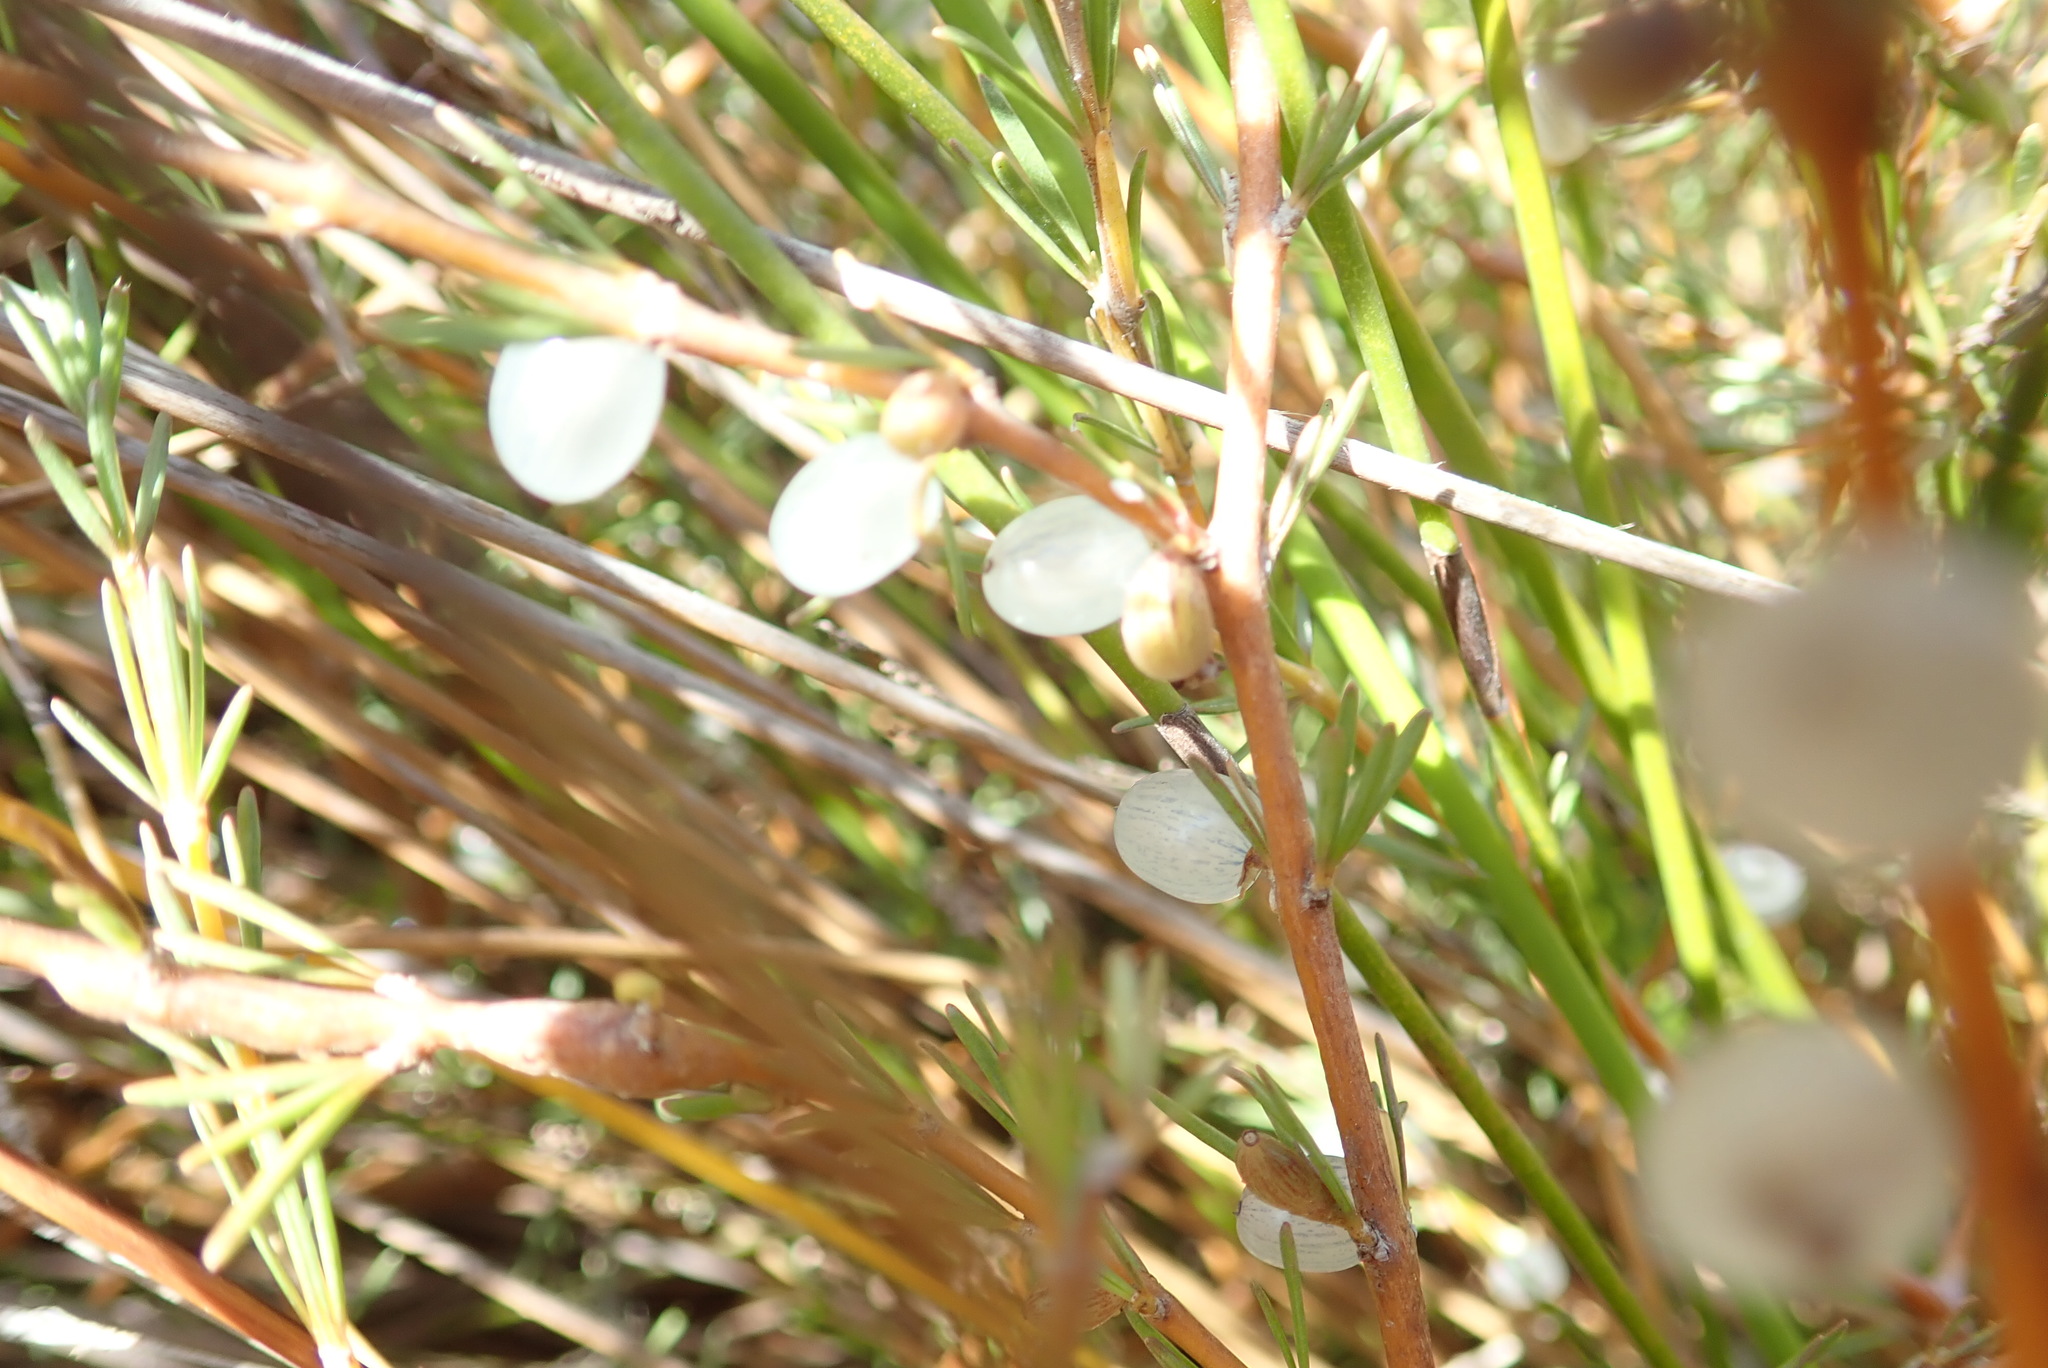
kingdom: Plantae
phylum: Tracheophyta
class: Magnoliopsida
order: Gentianales
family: Rubiaceae
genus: Coprosma
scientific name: Coprosma acerosa
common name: Sand coprosma
